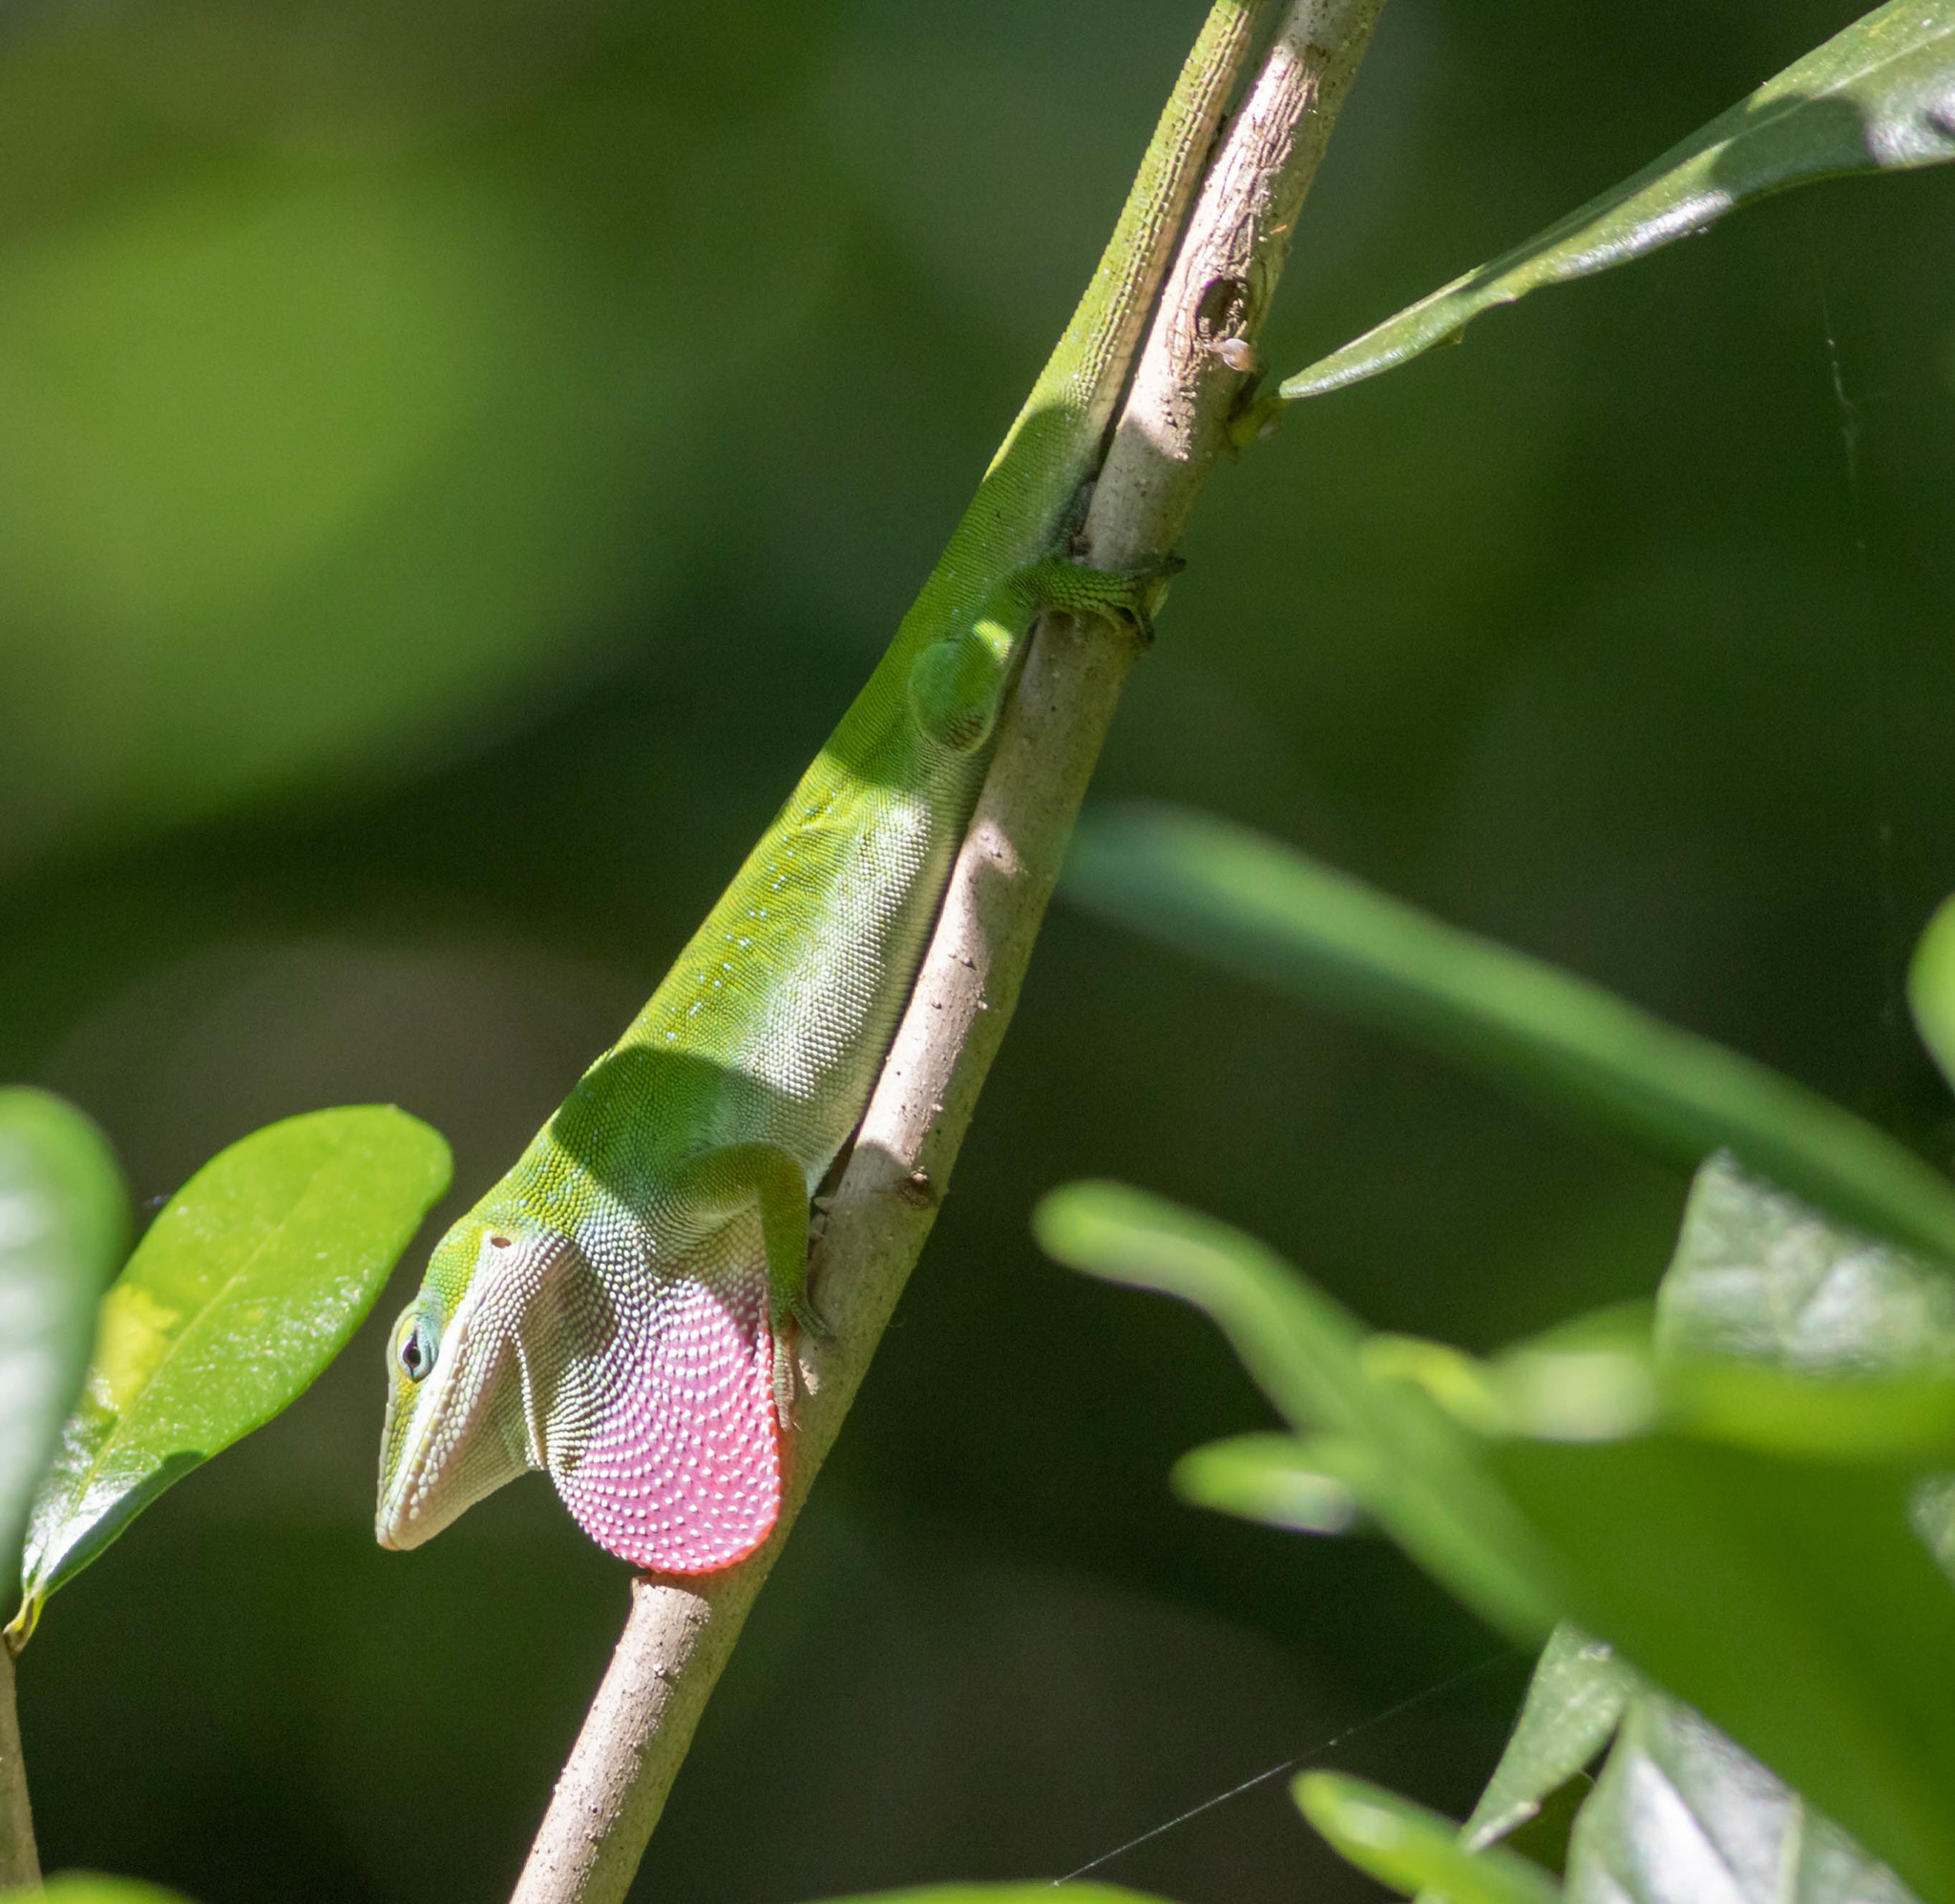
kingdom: Animalia
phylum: Chordata
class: Squamata
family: Dactyloidae
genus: Anolis
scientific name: Anolis carolinensis
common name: Green anole
